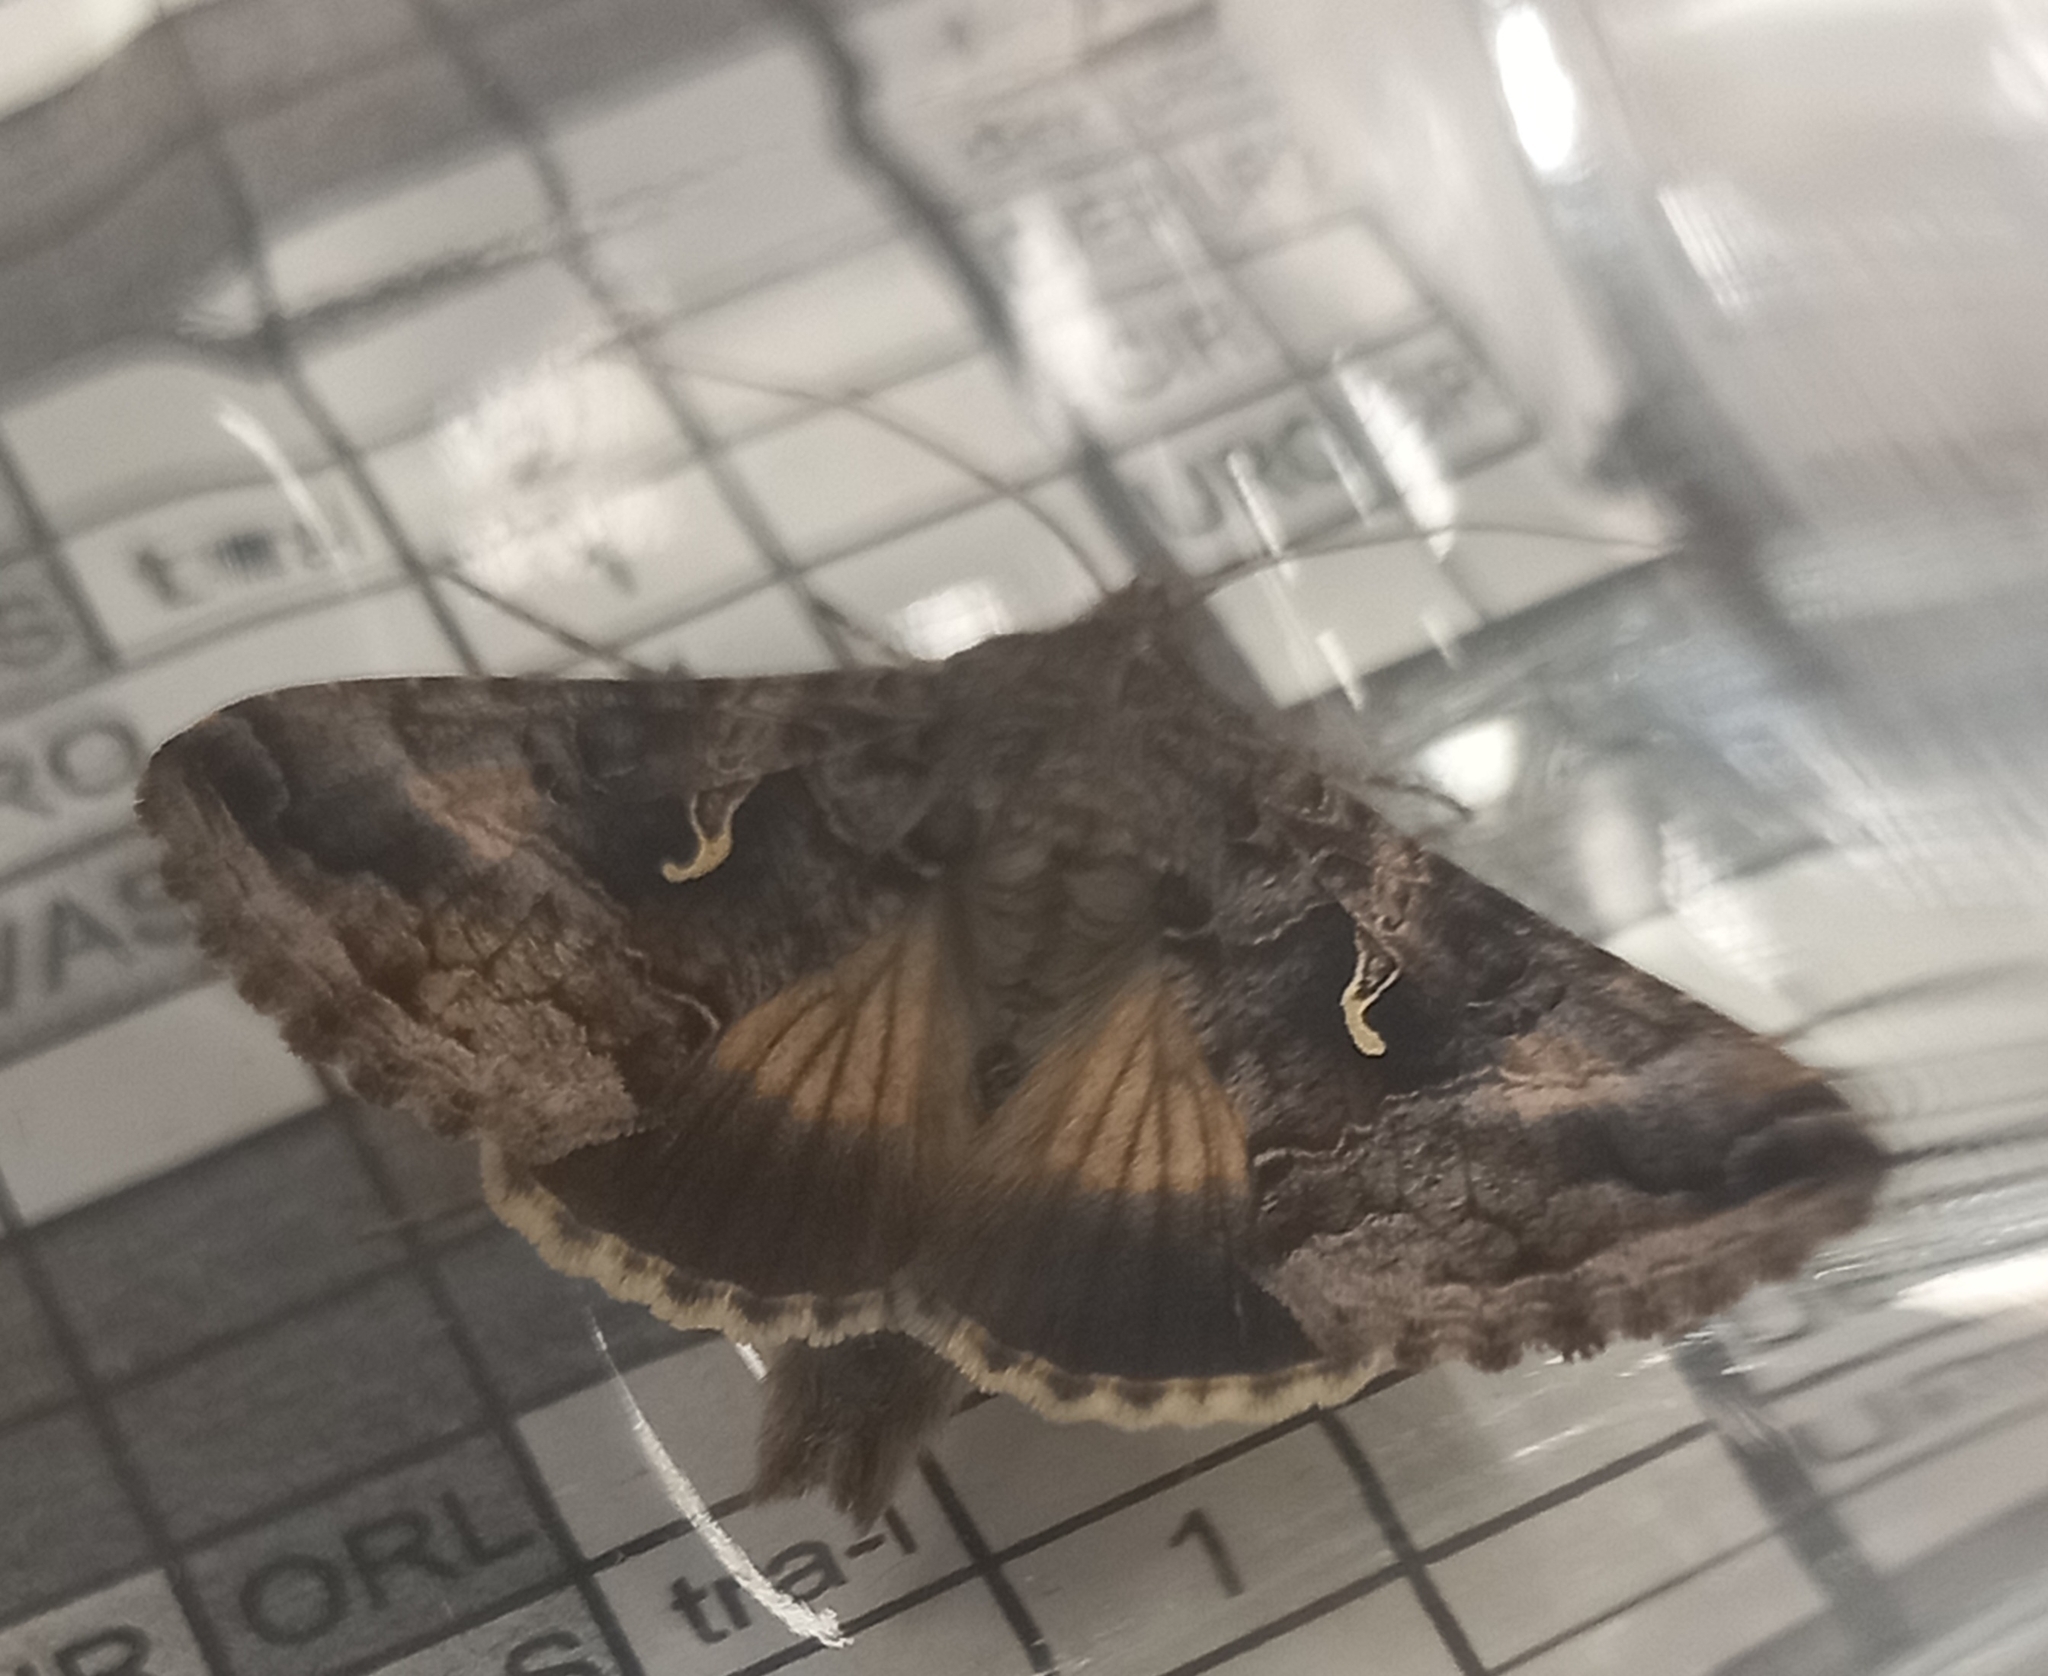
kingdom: Animalia
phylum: Arthropoda
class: Insecta
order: Lepidoptera
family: Noctuidae
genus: Autographa
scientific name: Autographa gamma
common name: Silver y
